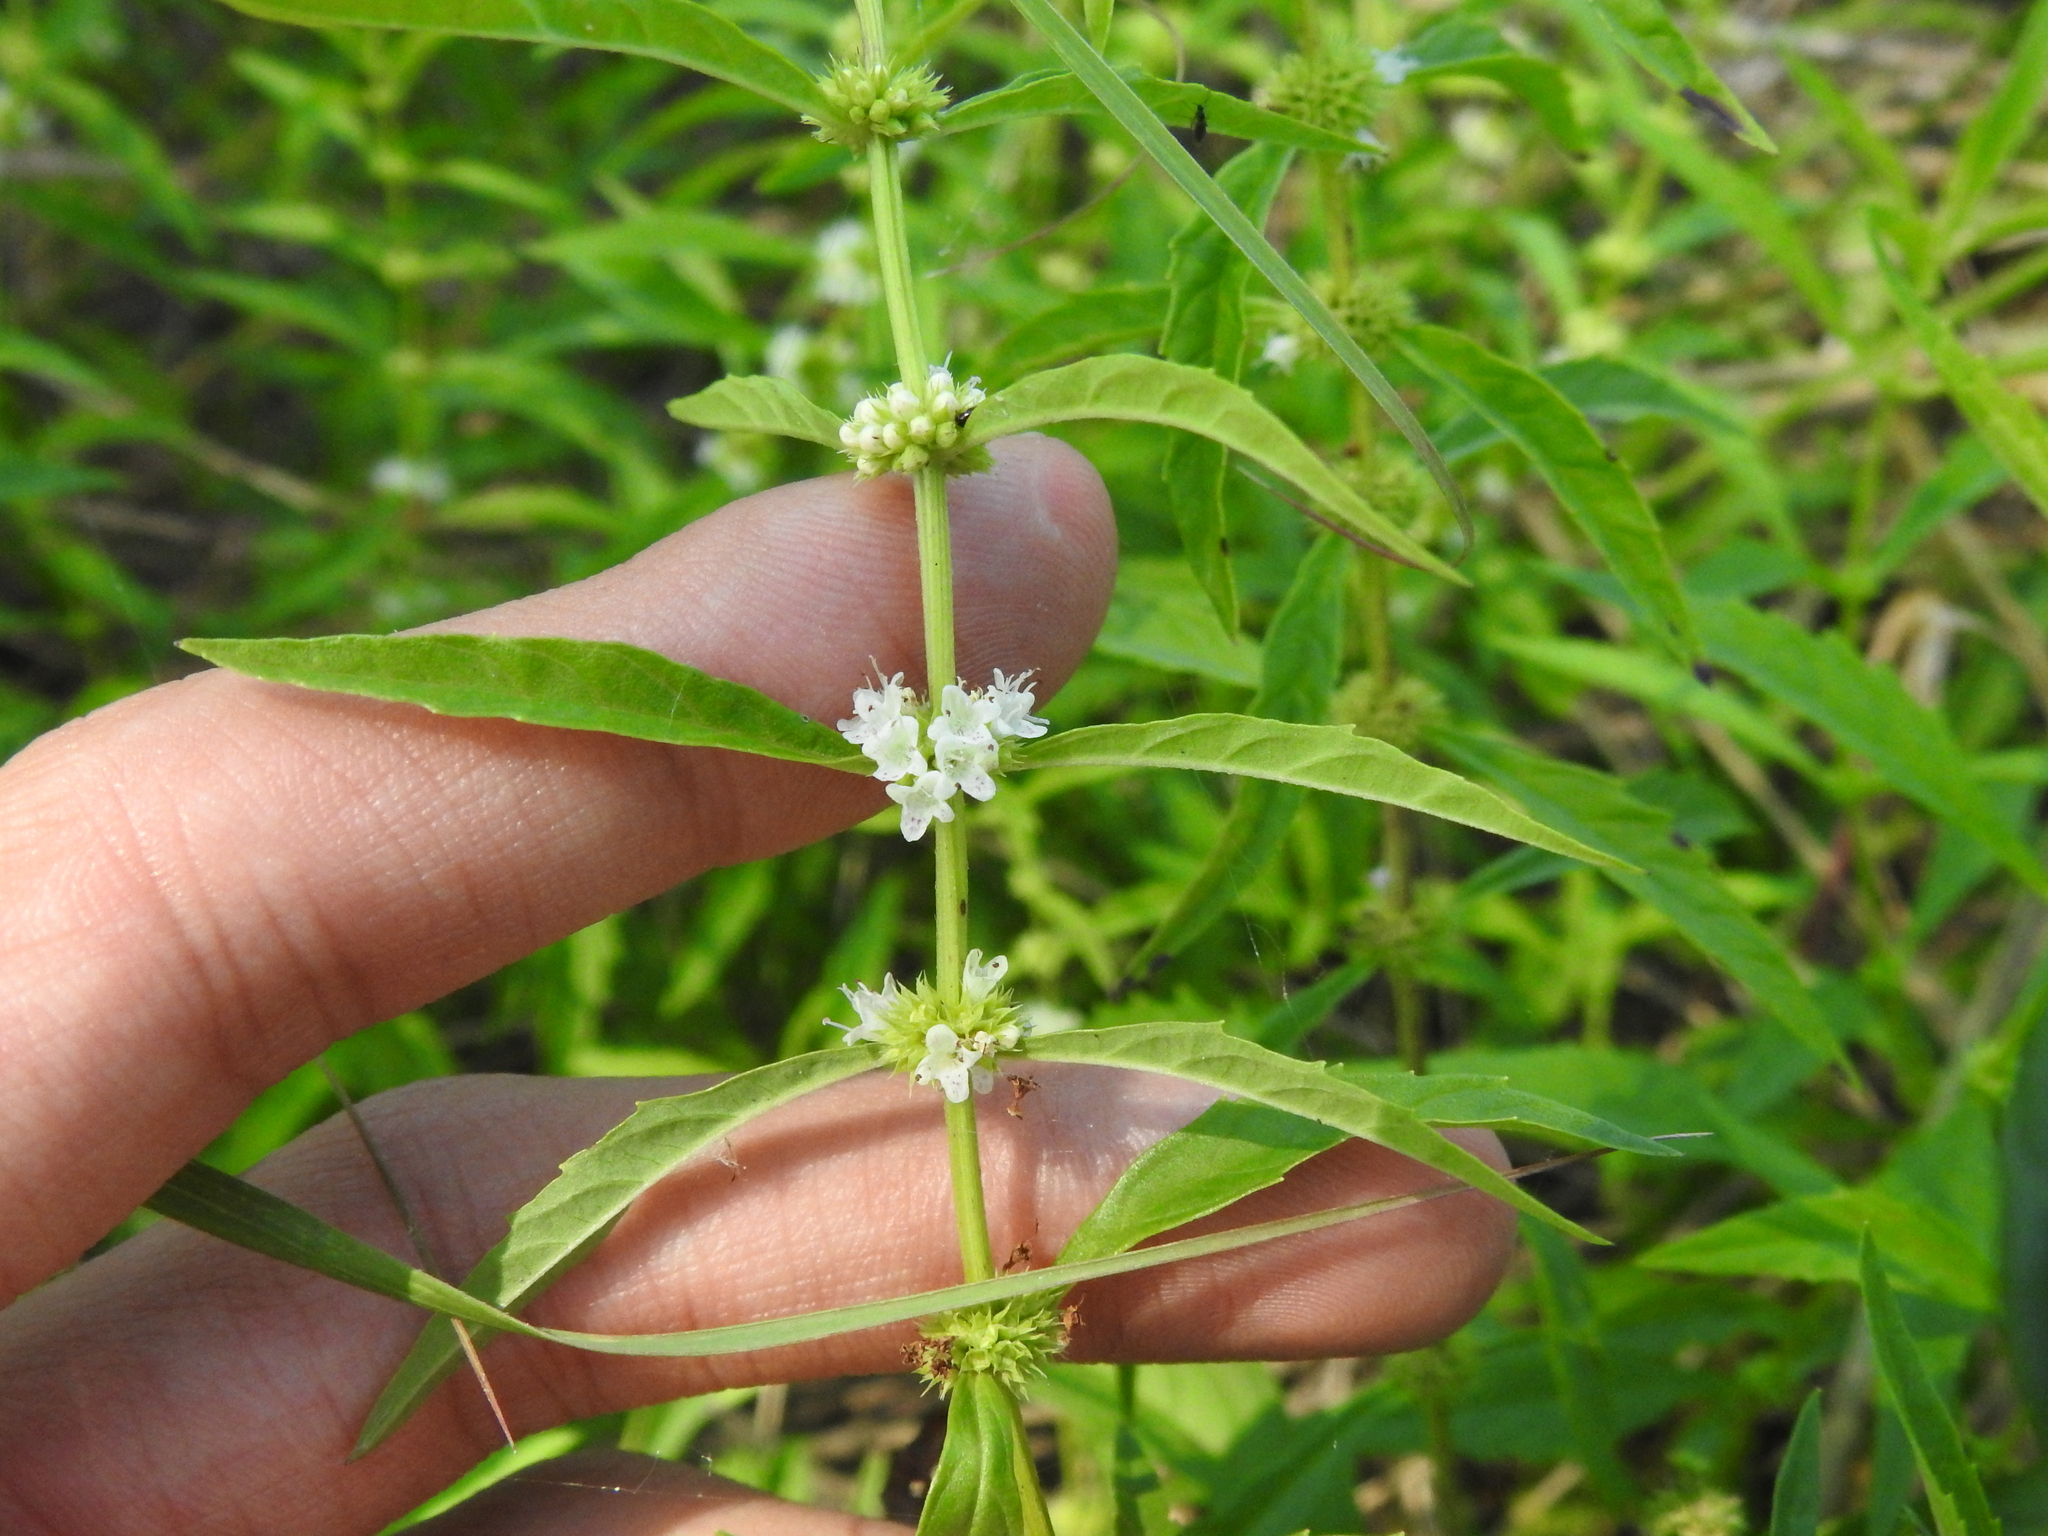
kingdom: Plantae
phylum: Tracheophyta
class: Magnoliopsida
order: Lamiales
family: Lamiaceae
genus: Lycopus
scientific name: Lycopus americanus
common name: American bugleweed
